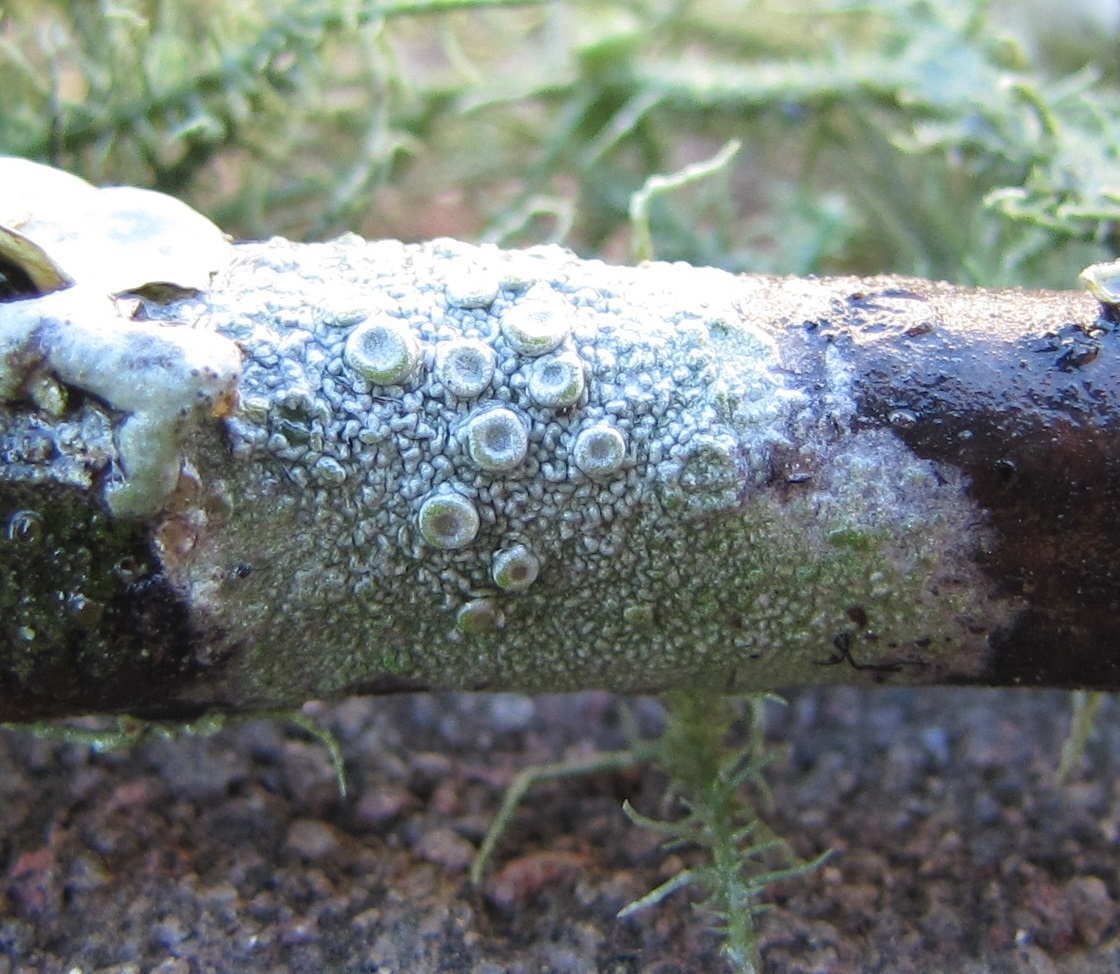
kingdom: Fungi
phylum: Ascomycota
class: Lecanoromycetes
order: Pertusariales
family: Ochrolechiaceae
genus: Ochrolechia
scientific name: Ochrolechia africana
